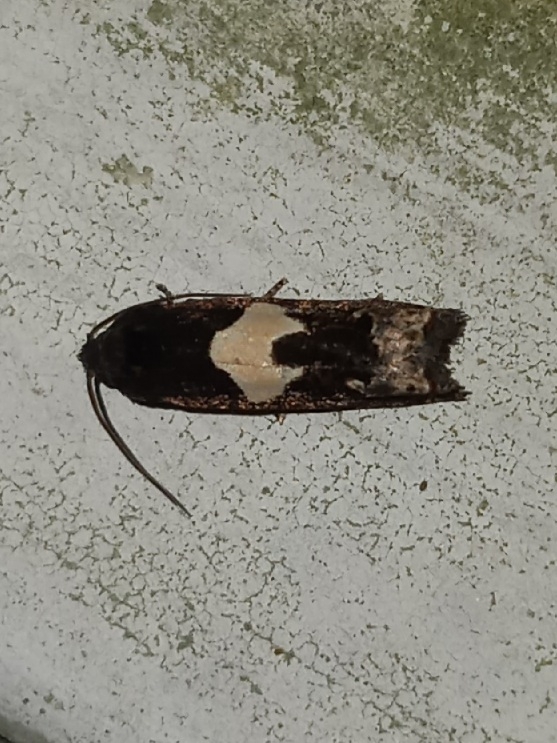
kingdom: Animalia
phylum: Arthropoda
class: Insecta
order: Lepidoptera
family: Tortricidae
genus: Epiblema
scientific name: Epiblema otiosana
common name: Bidens borer moth
